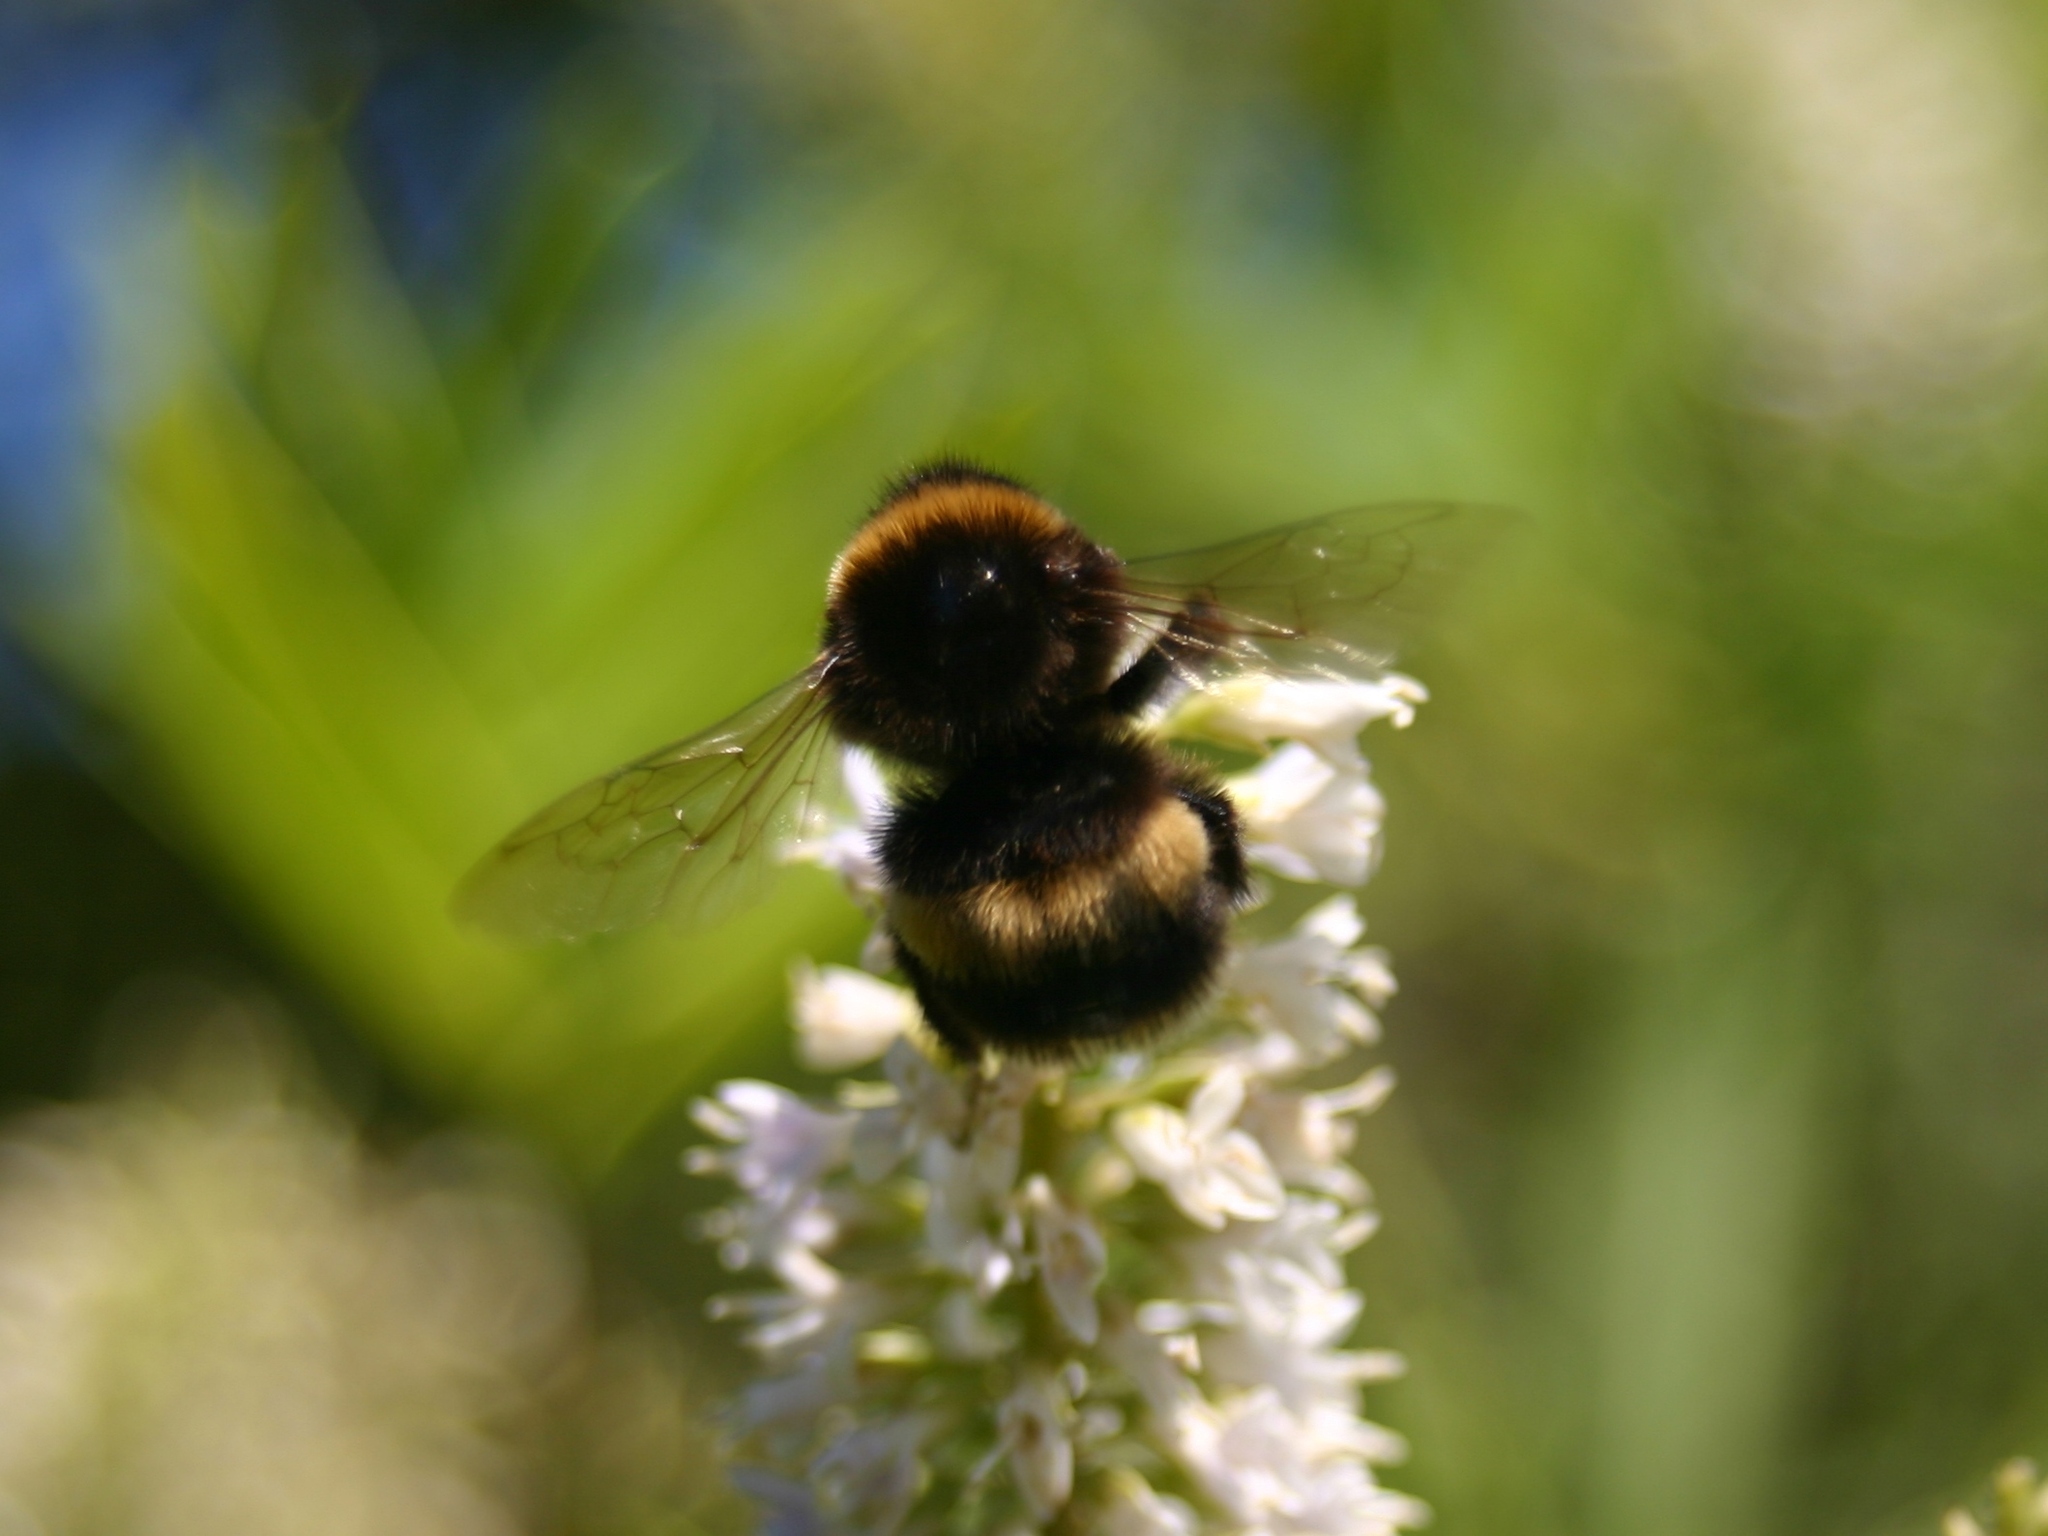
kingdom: Animalia
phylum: Arthropoda
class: Insecta
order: Hymenoptera
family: Apidae
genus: Bombus
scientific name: Bombus terrestris
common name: Buff-tailed bumblebee
